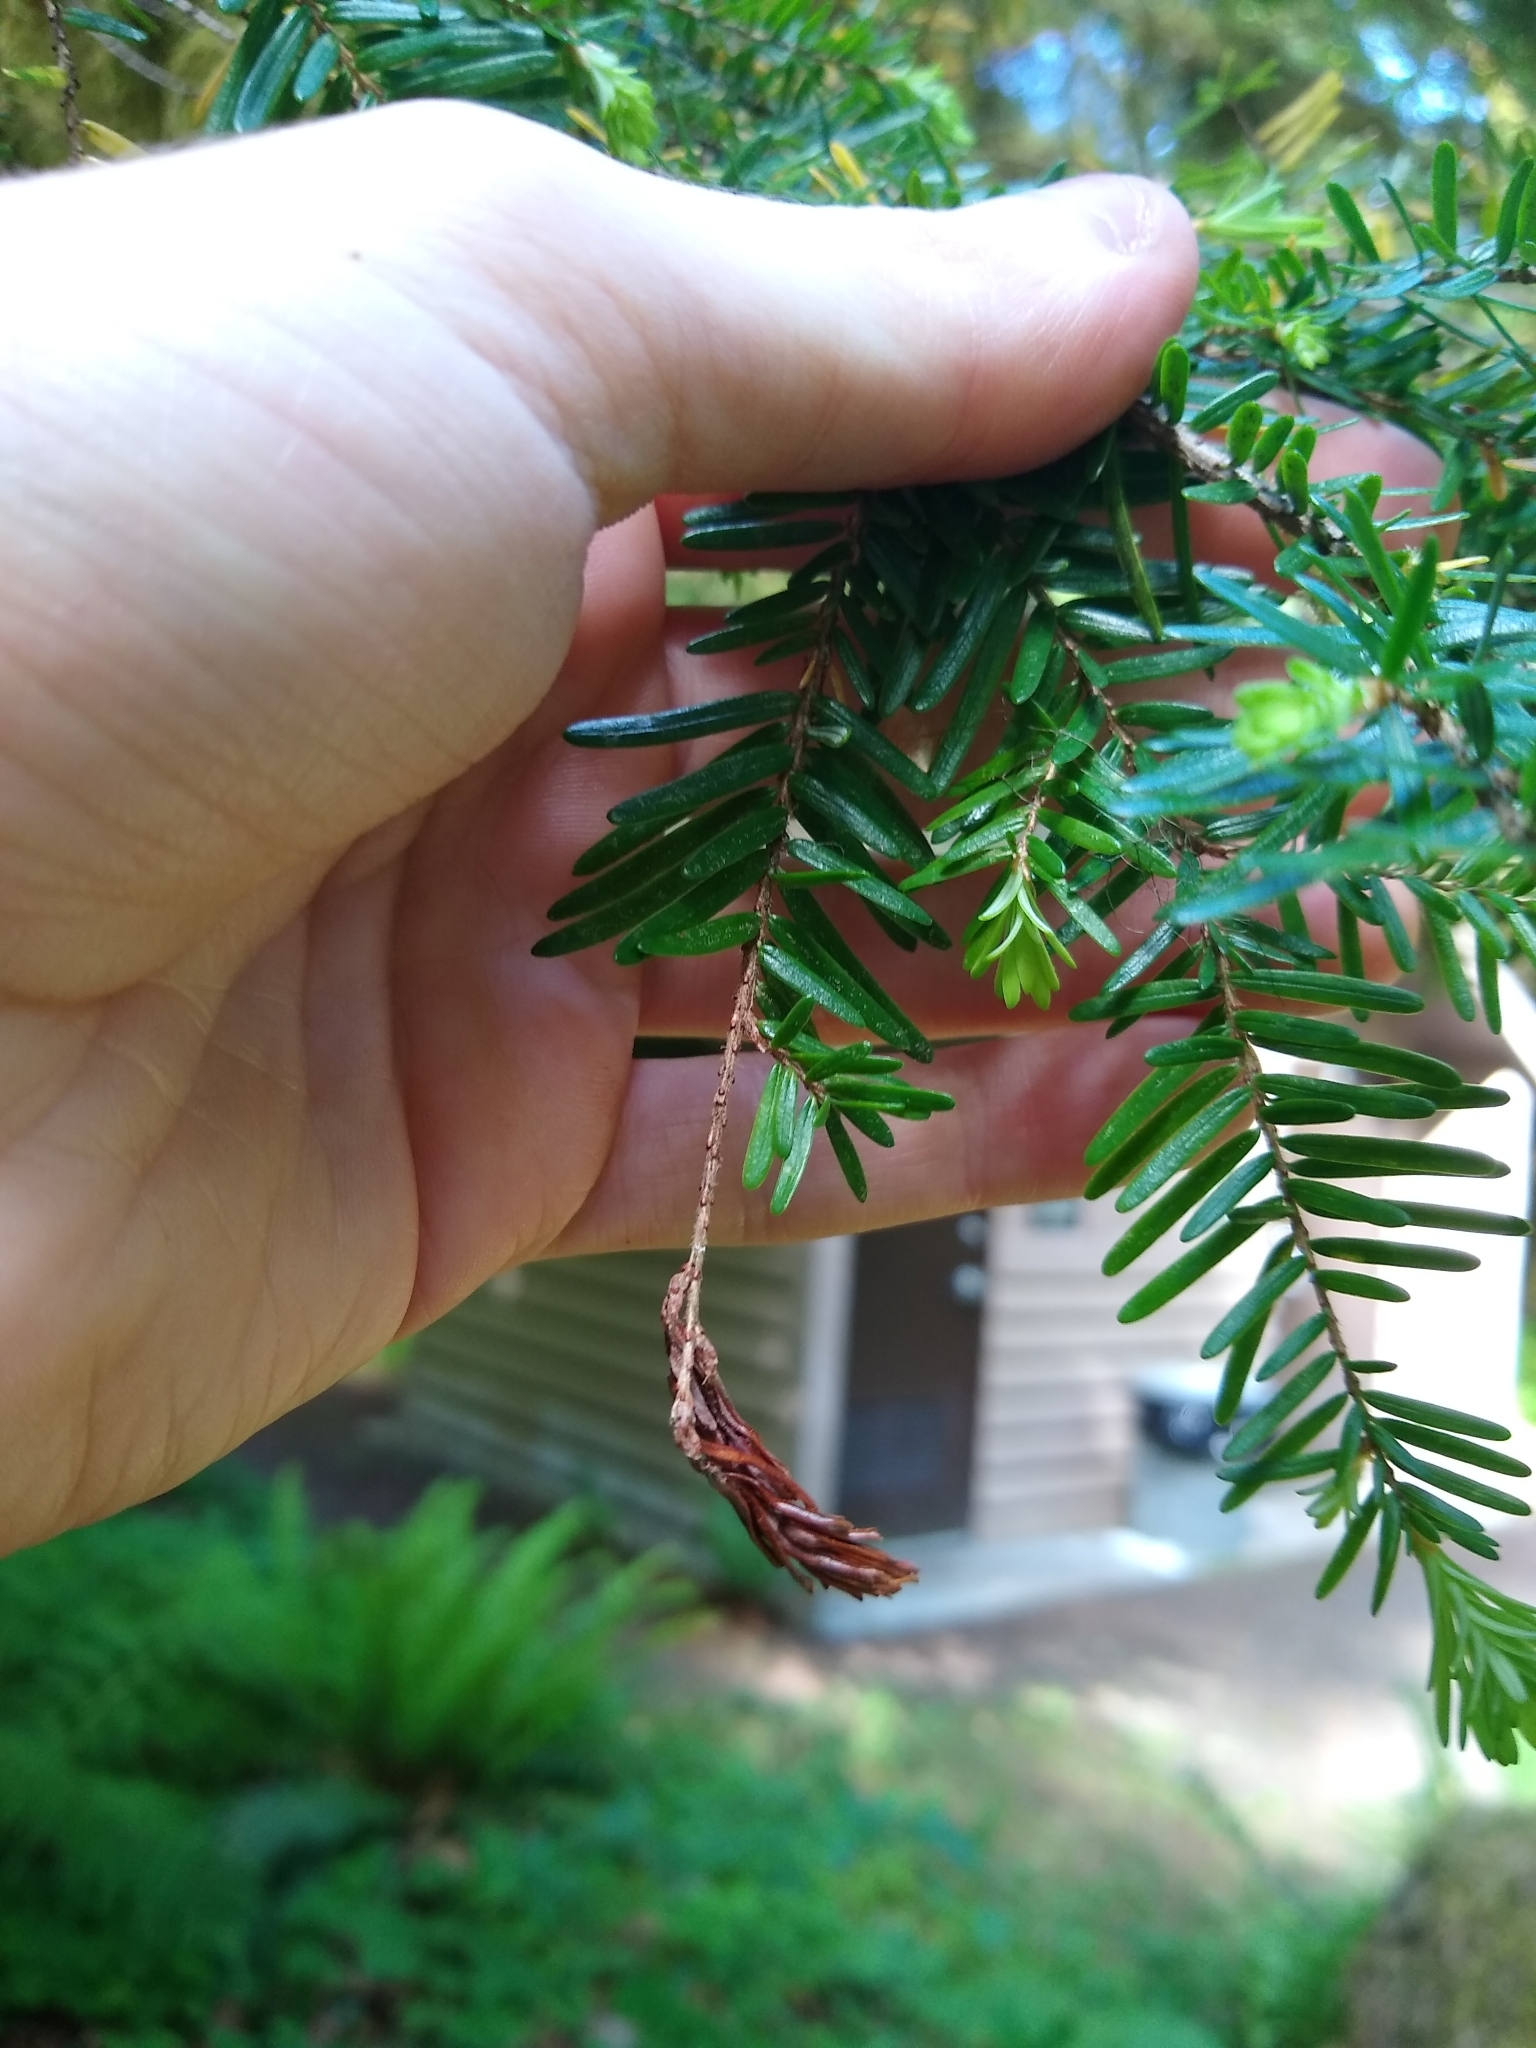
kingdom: Plantae
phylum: Tracheophyta
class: Pinopsida
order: Pinales
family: Pinaceae
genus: Tsuga
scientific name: Tsuga heterophylla
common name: Western hemlock
